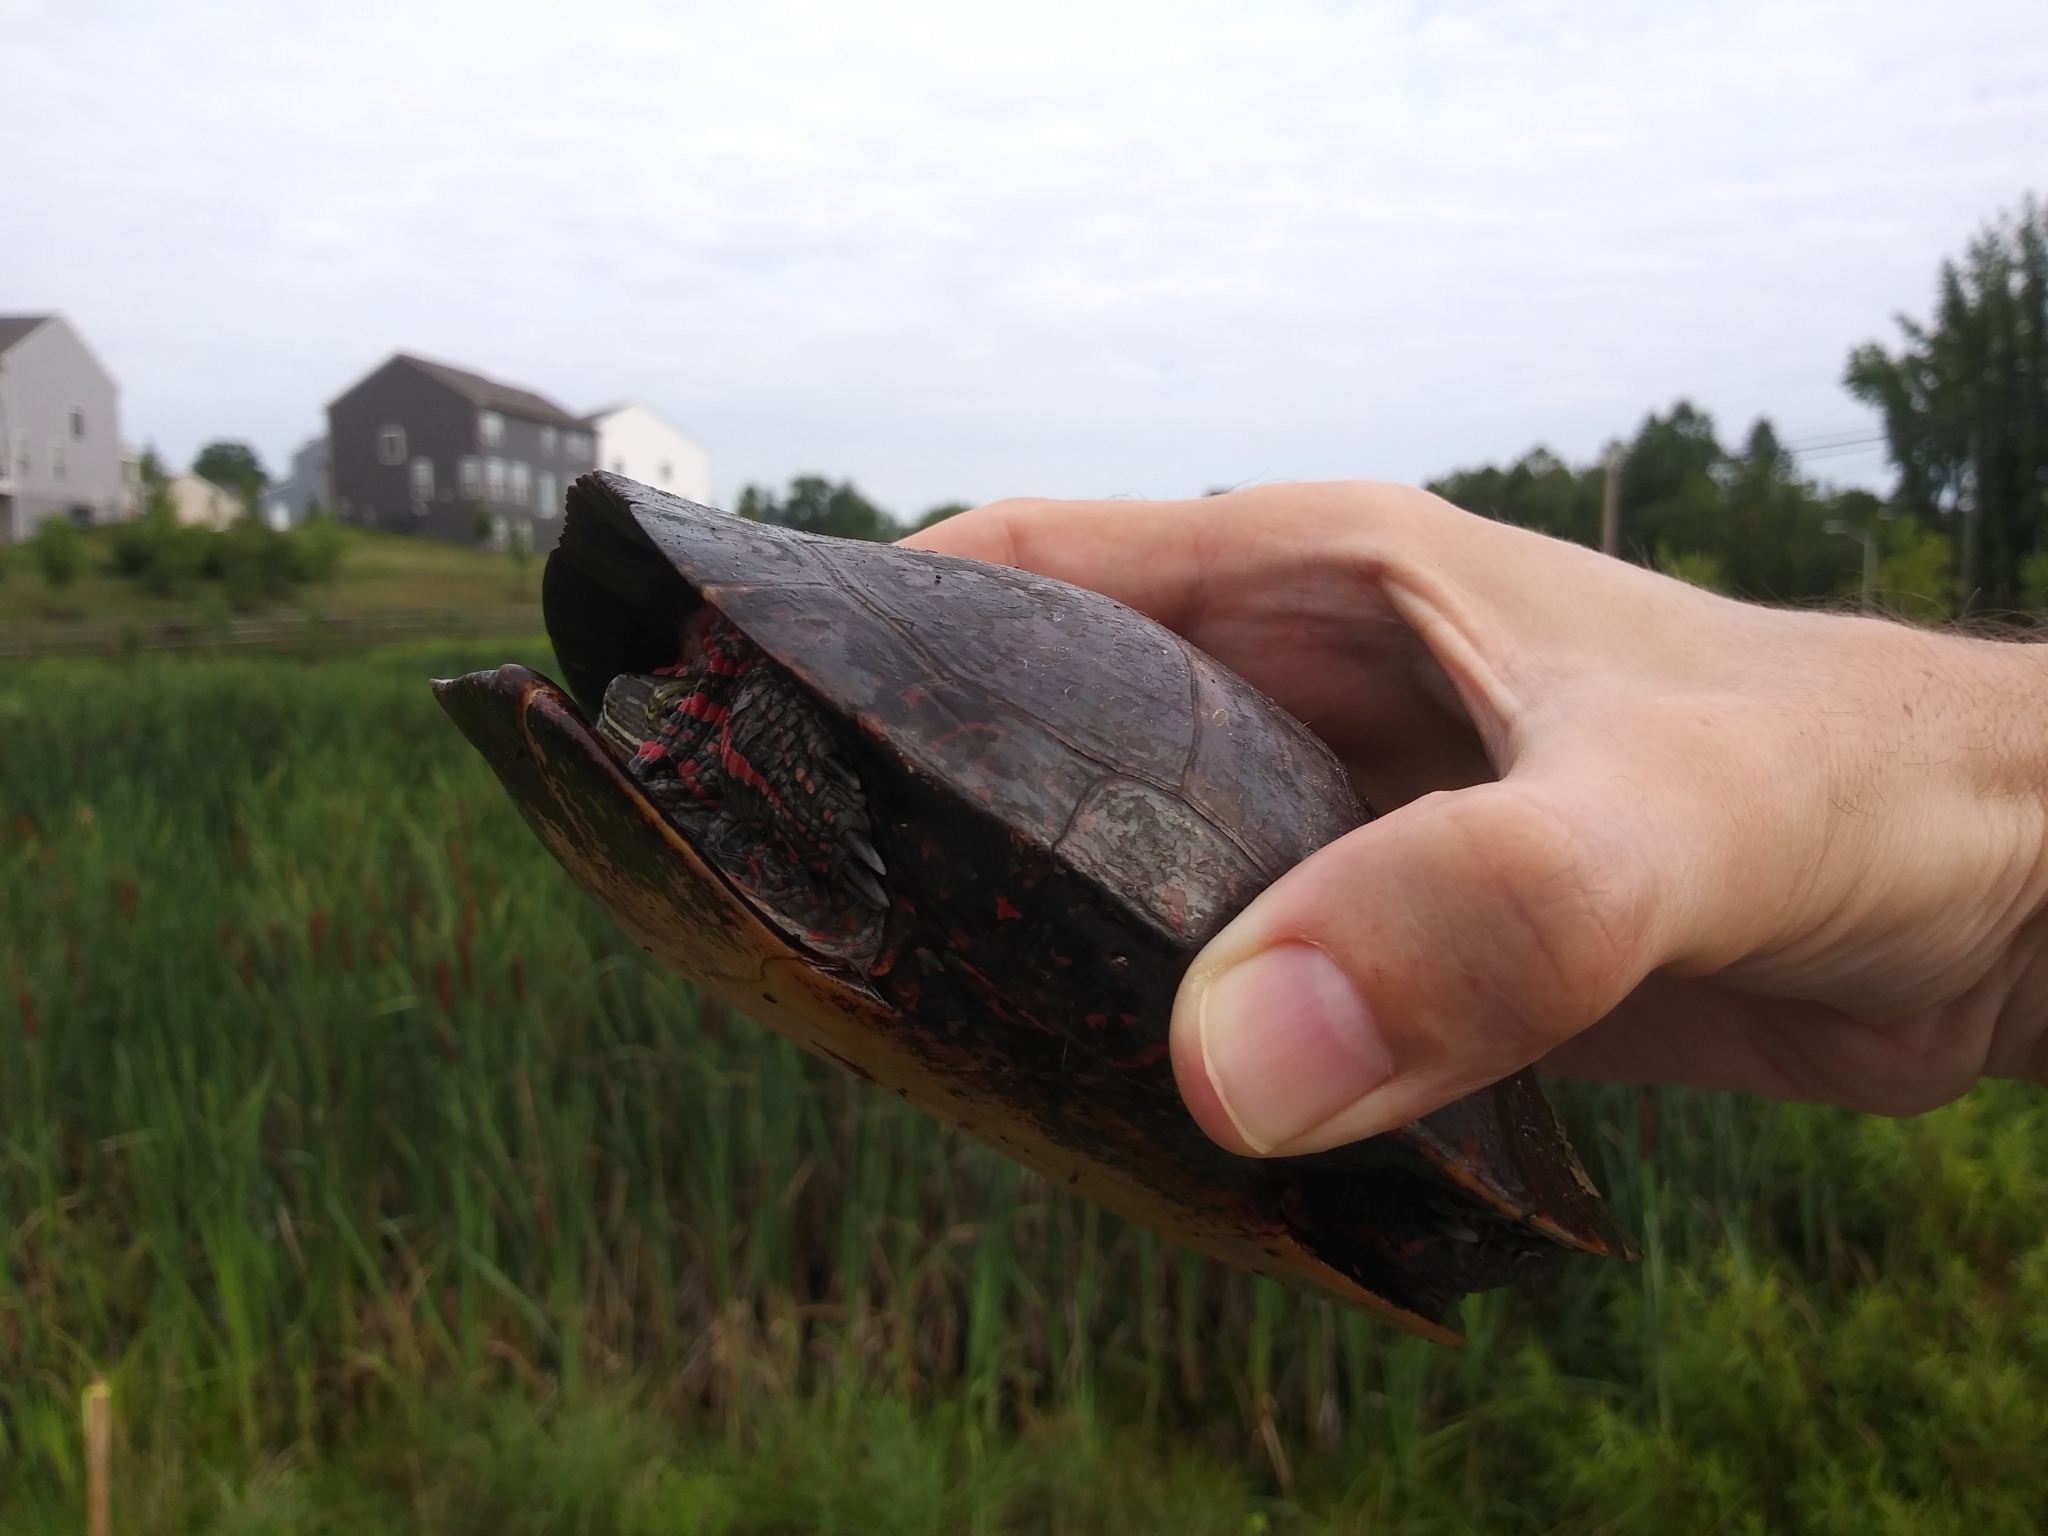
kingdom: Animalia
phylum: Chordata
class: Testudines
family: Emydidae
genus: Chrysemys
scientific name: Chrysemys picta
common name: Painted turtle
